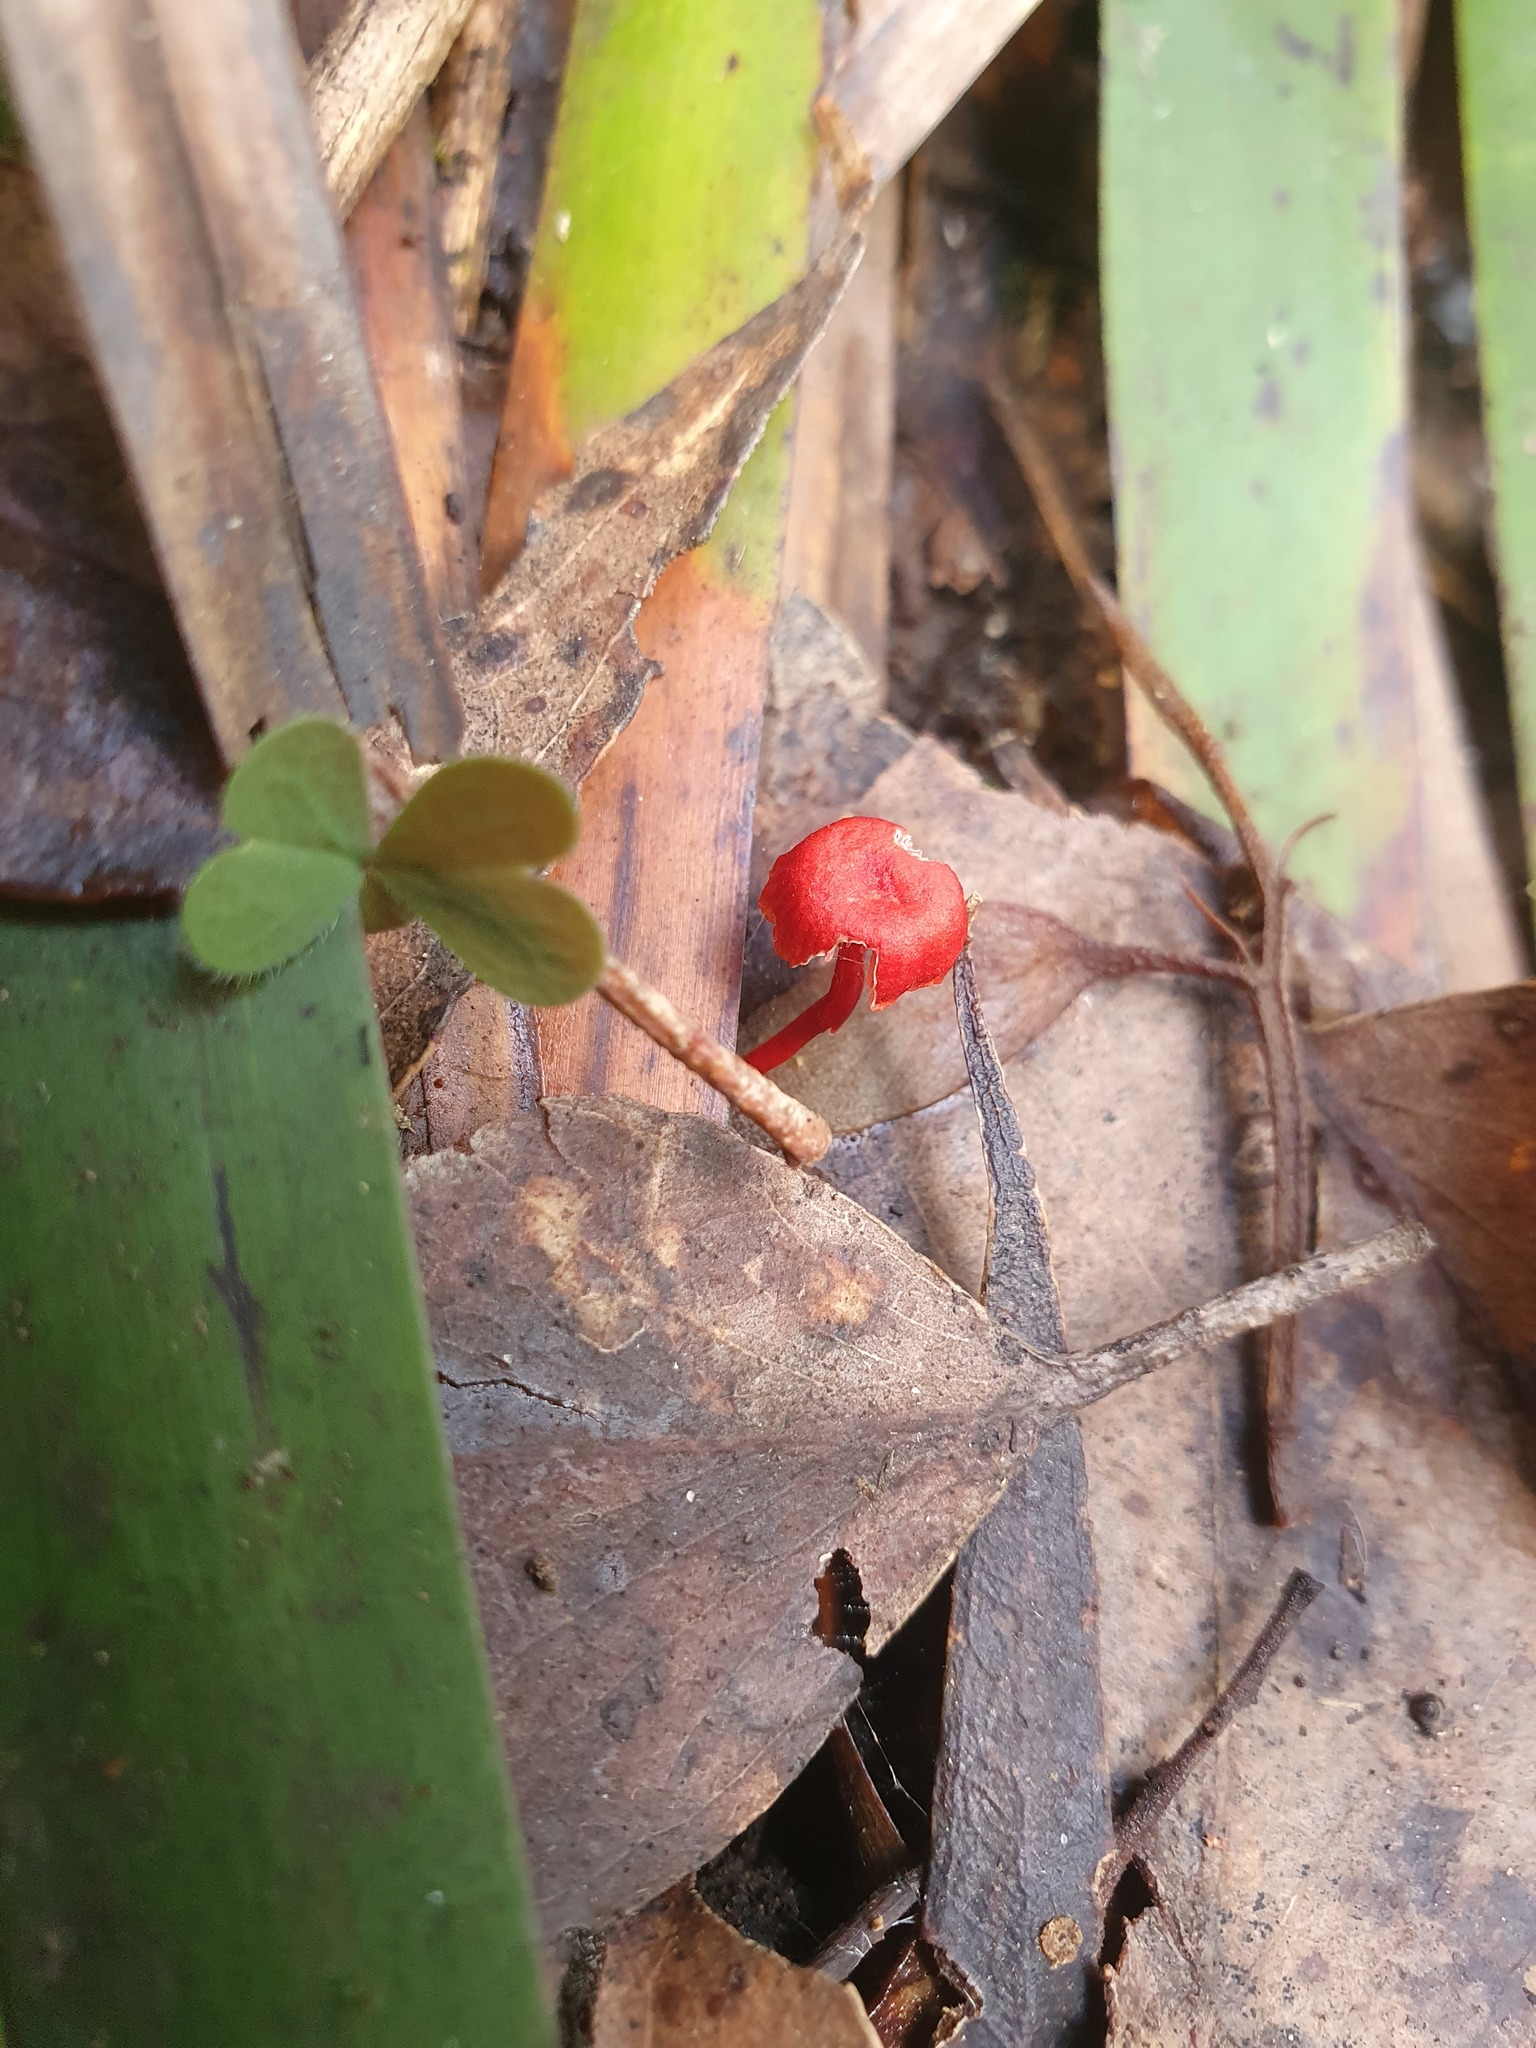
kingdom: Fungi
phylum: Basidiomycota
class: Agaricomycetes
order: Agaricales
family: Mycenaceae
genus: Cruentomycena
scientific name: Cruentomycena viscidocruenta
